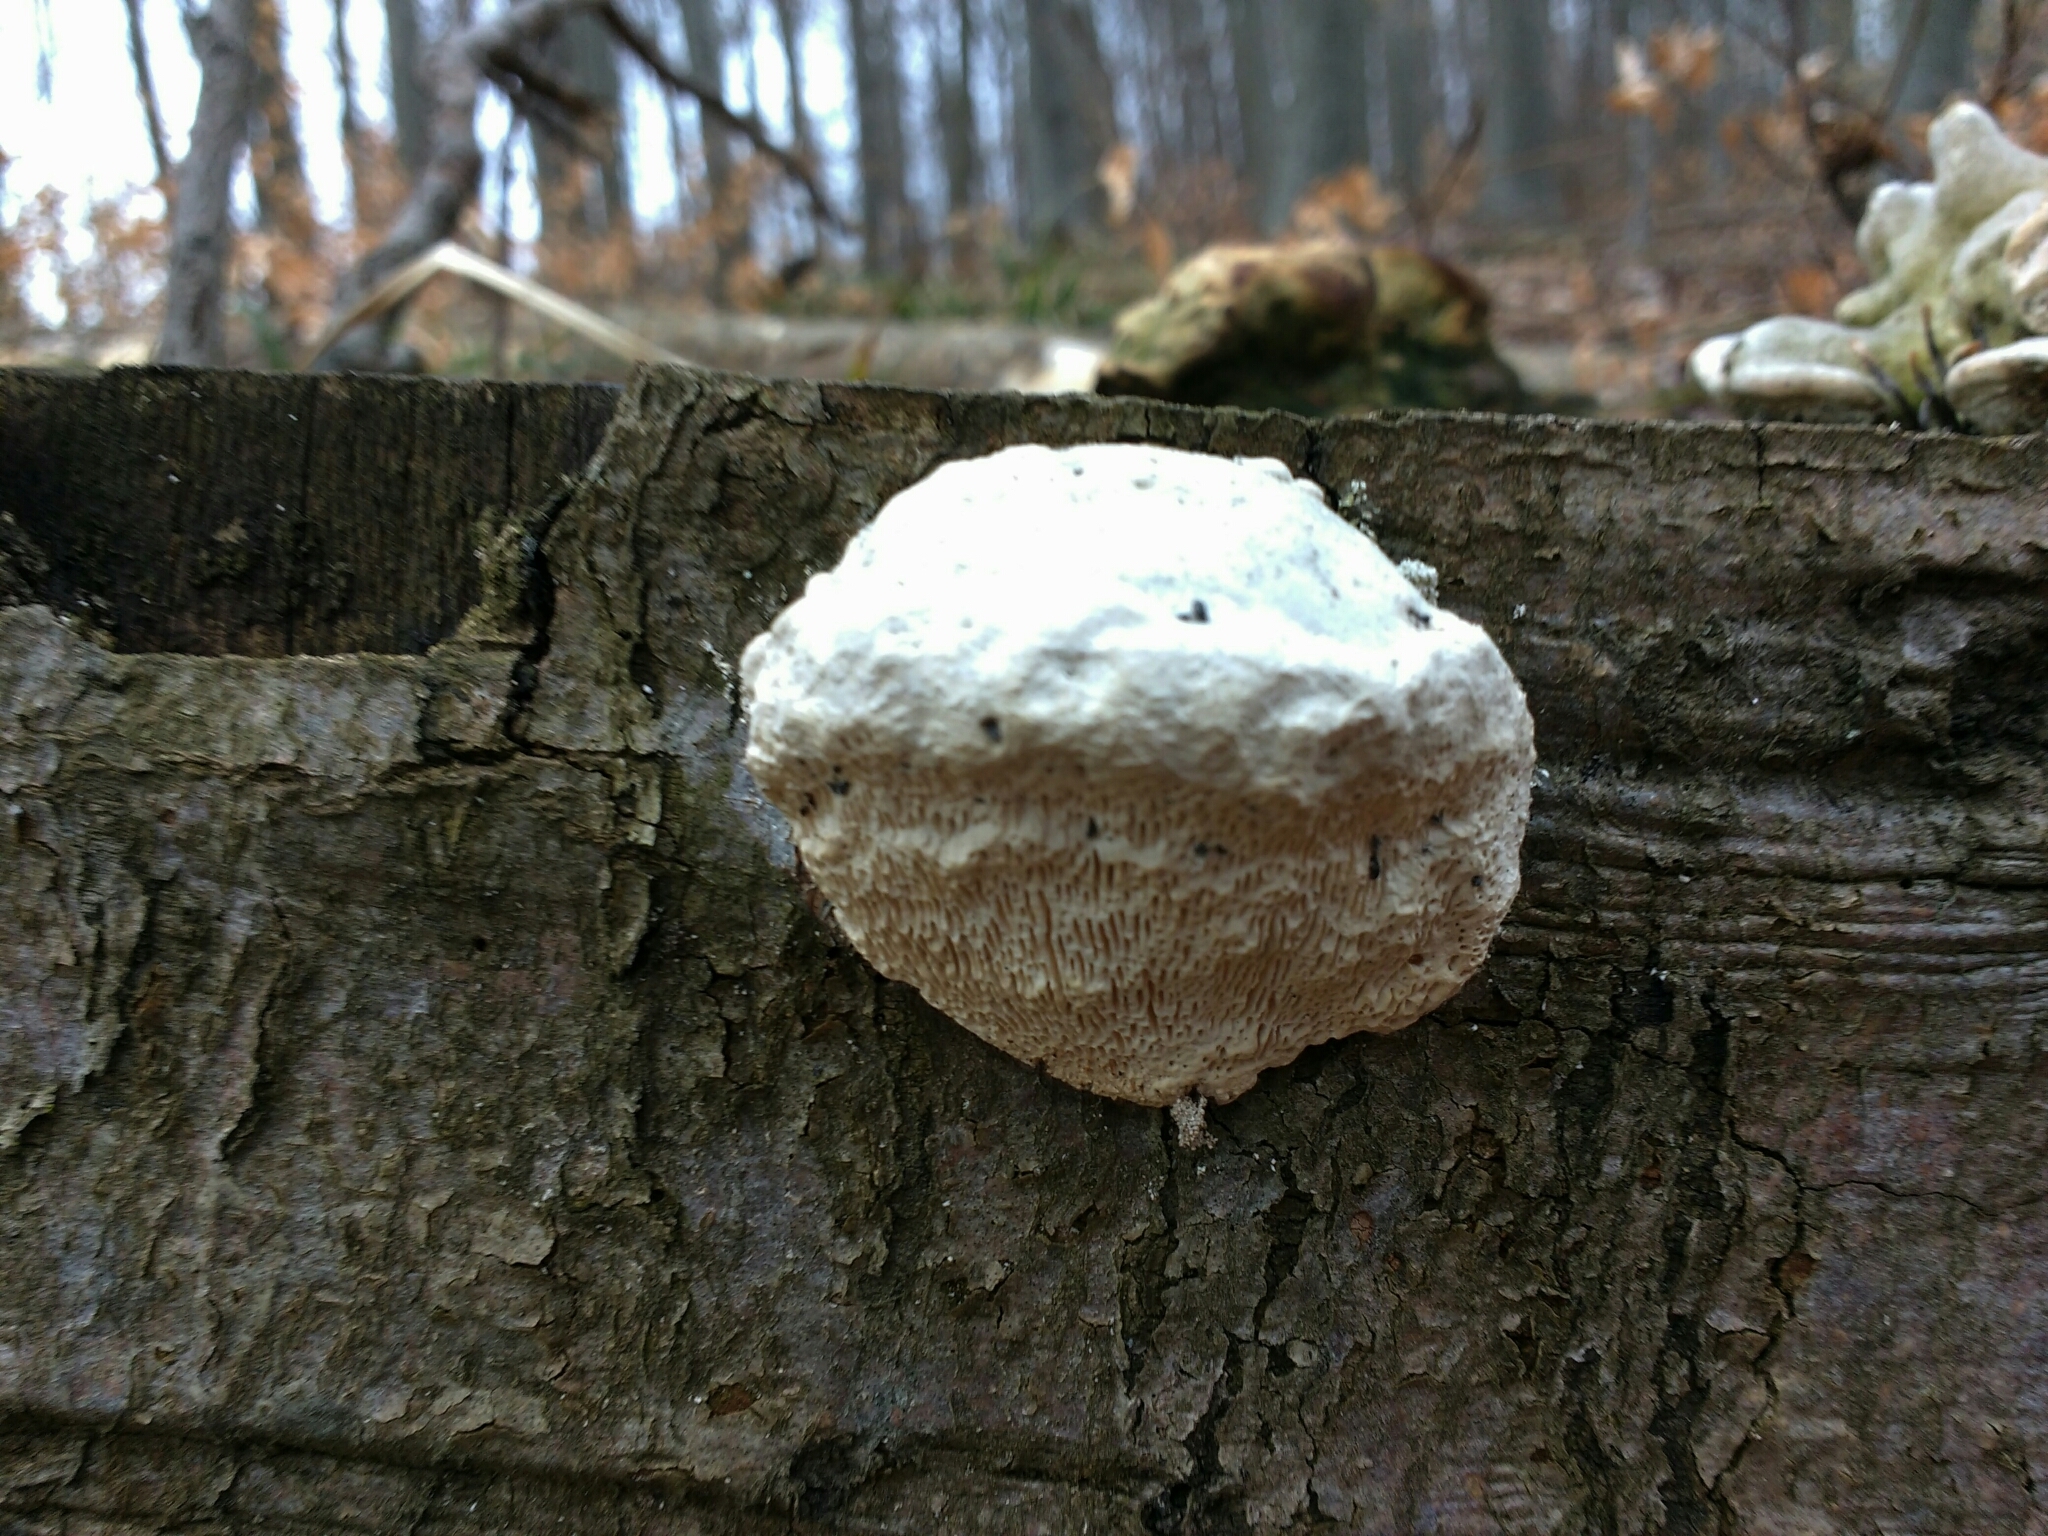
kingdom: Fungi
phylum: Basidiomycota
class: Agaricomycetes
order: Polyporales
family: Polyporaceae
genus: Trametes
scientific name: Trametes gibbosa
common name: Lumpy bracket
